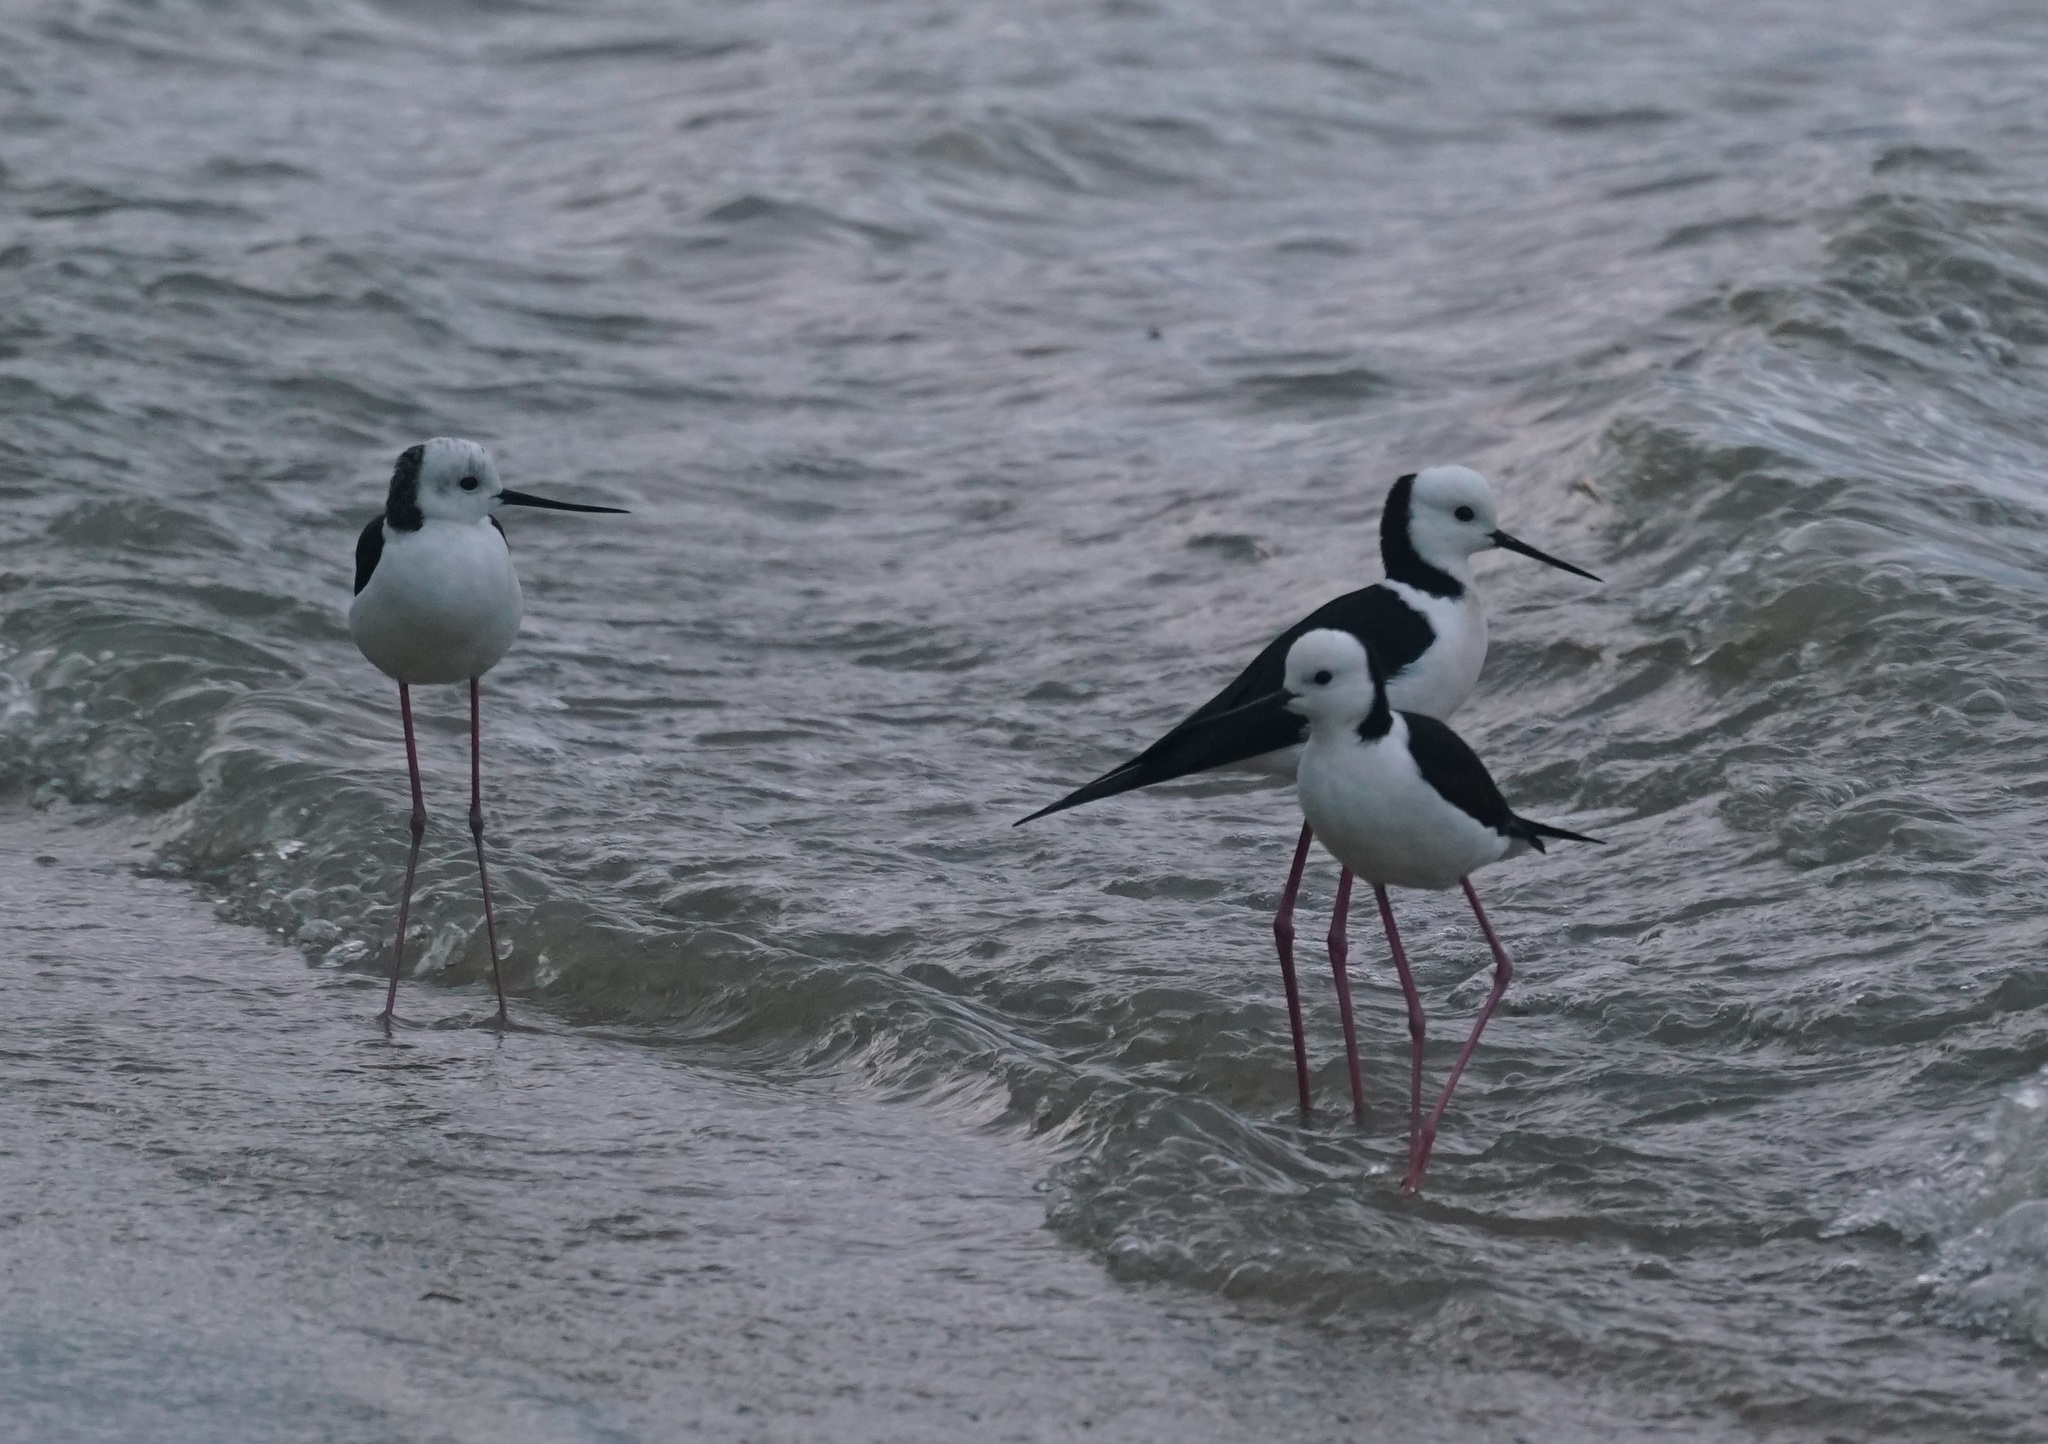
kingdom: Animalia
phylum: Chordata
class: Aves
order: Charadriiformes
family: Recurvirostridae
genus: Himantopus
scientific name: Himantopus leucocephalus
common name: White-headed stilt
